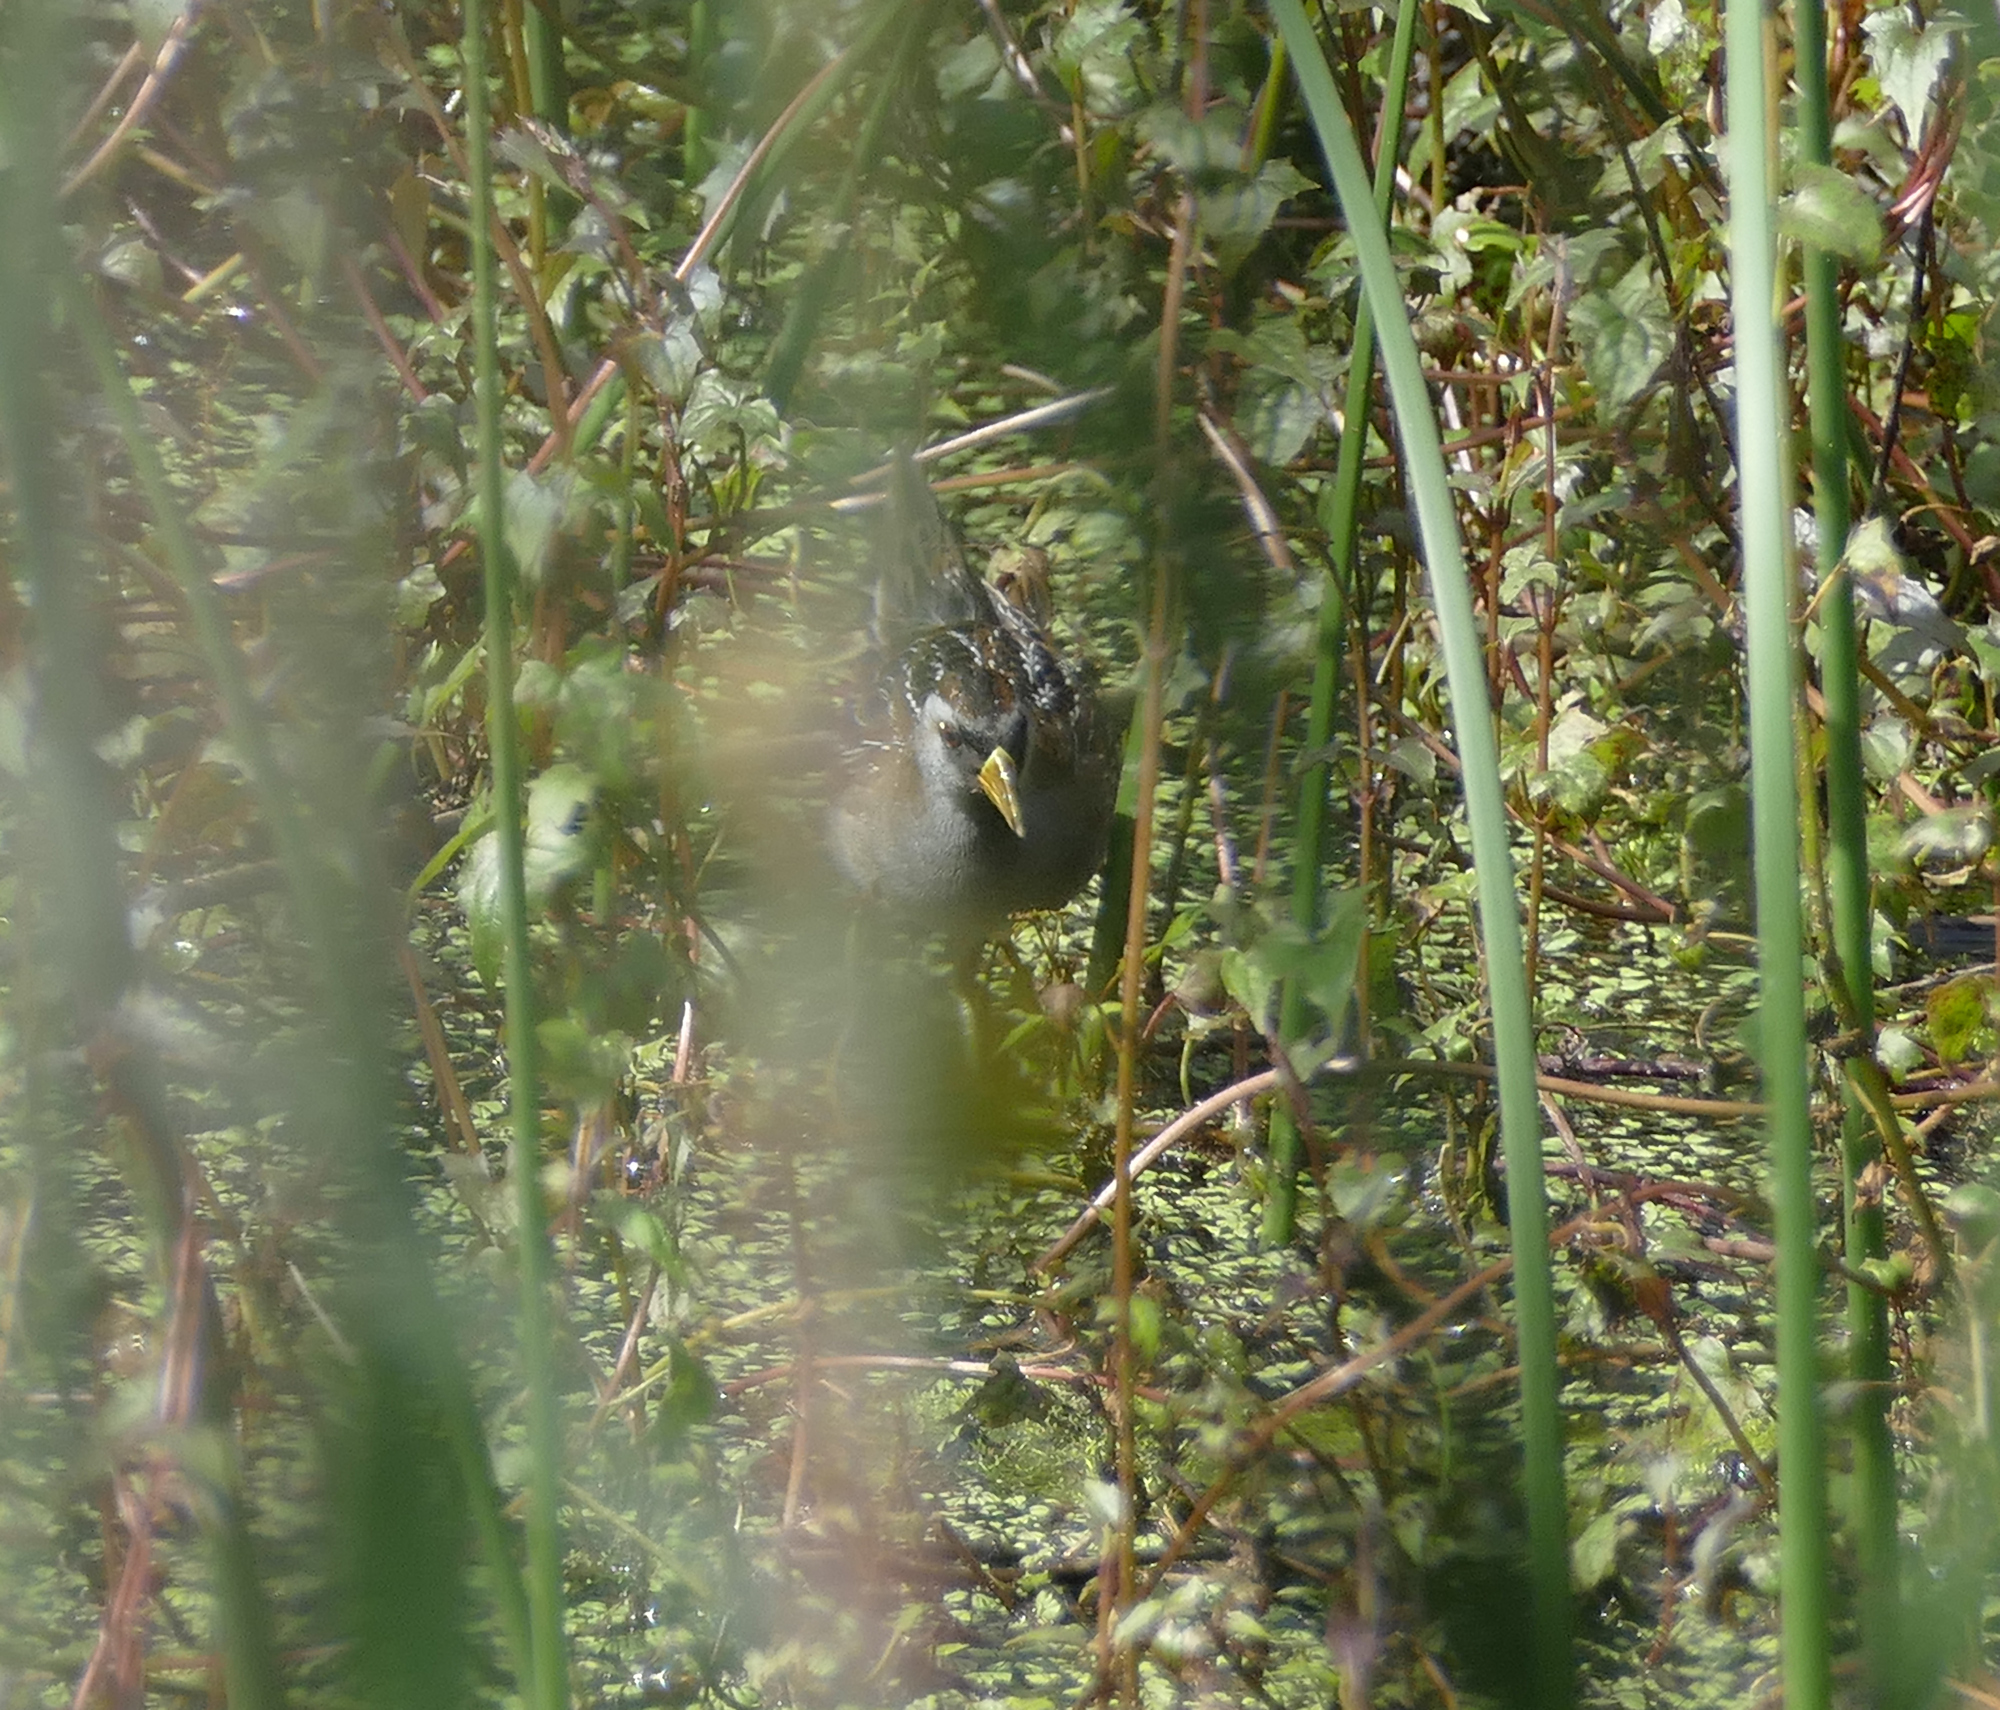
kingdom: Animalia
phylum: Chordata
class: Aves
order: Gruiformes
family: Rallidae
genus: Porzana
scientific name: Porzana carolina
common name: Sora
